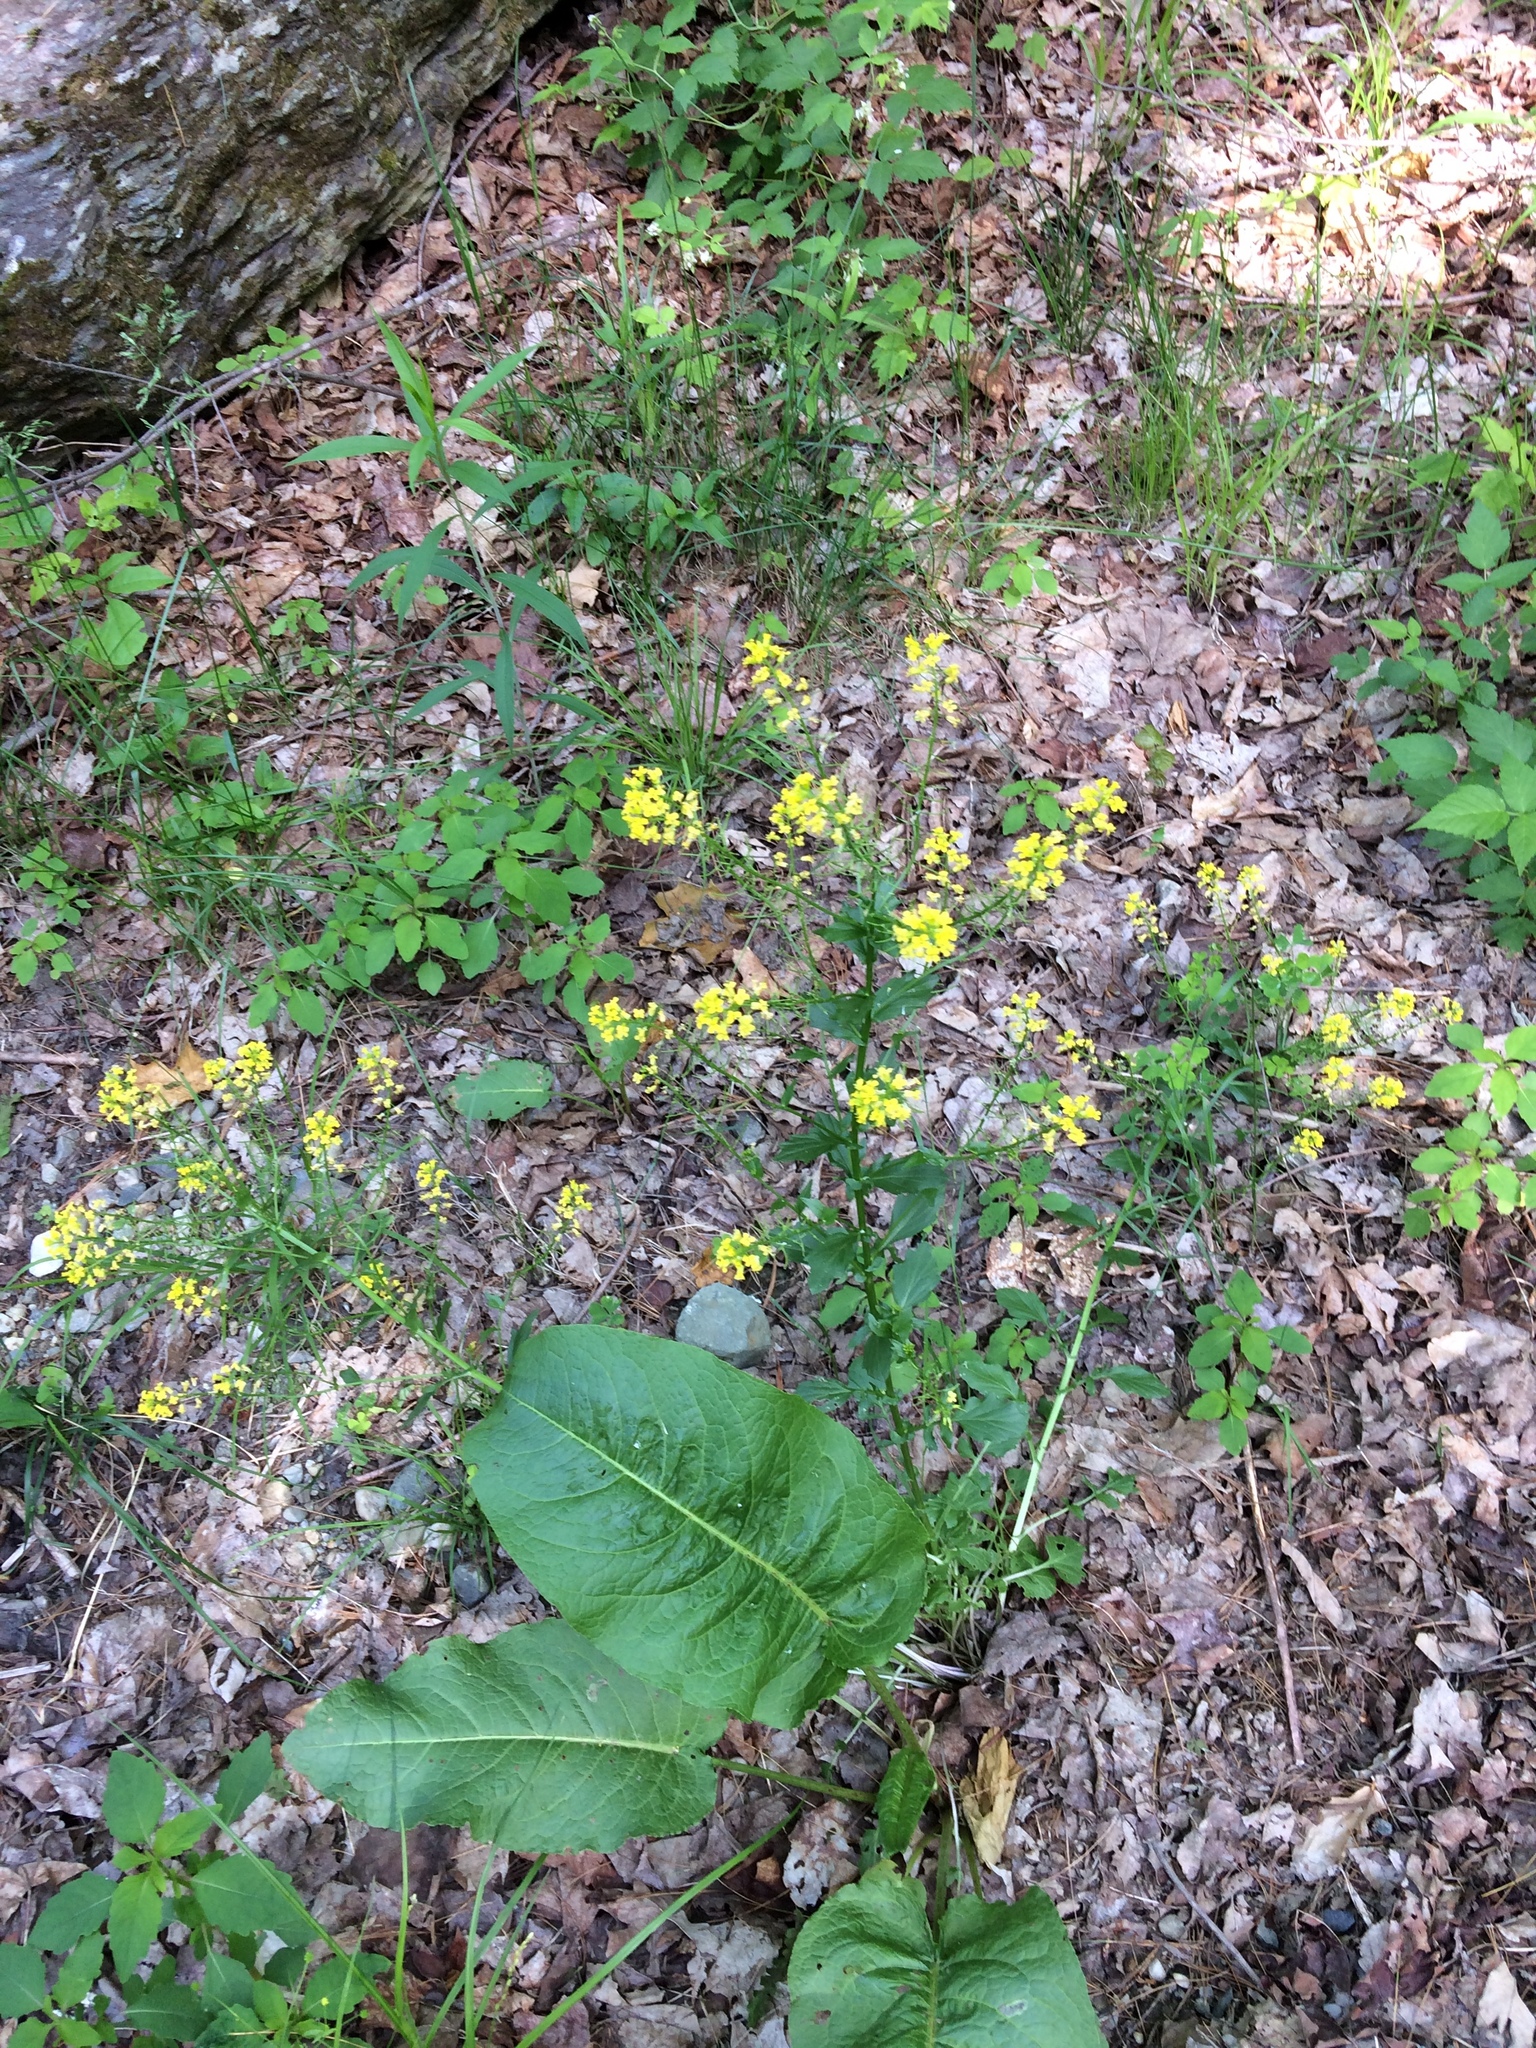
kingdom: Plantae
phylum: Tracheophyta
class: Magnoliopsida
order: Brassicales
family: Brassicaceae
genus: Barbarea
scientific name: Barbarea vulgaris
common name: Cressy-greens
